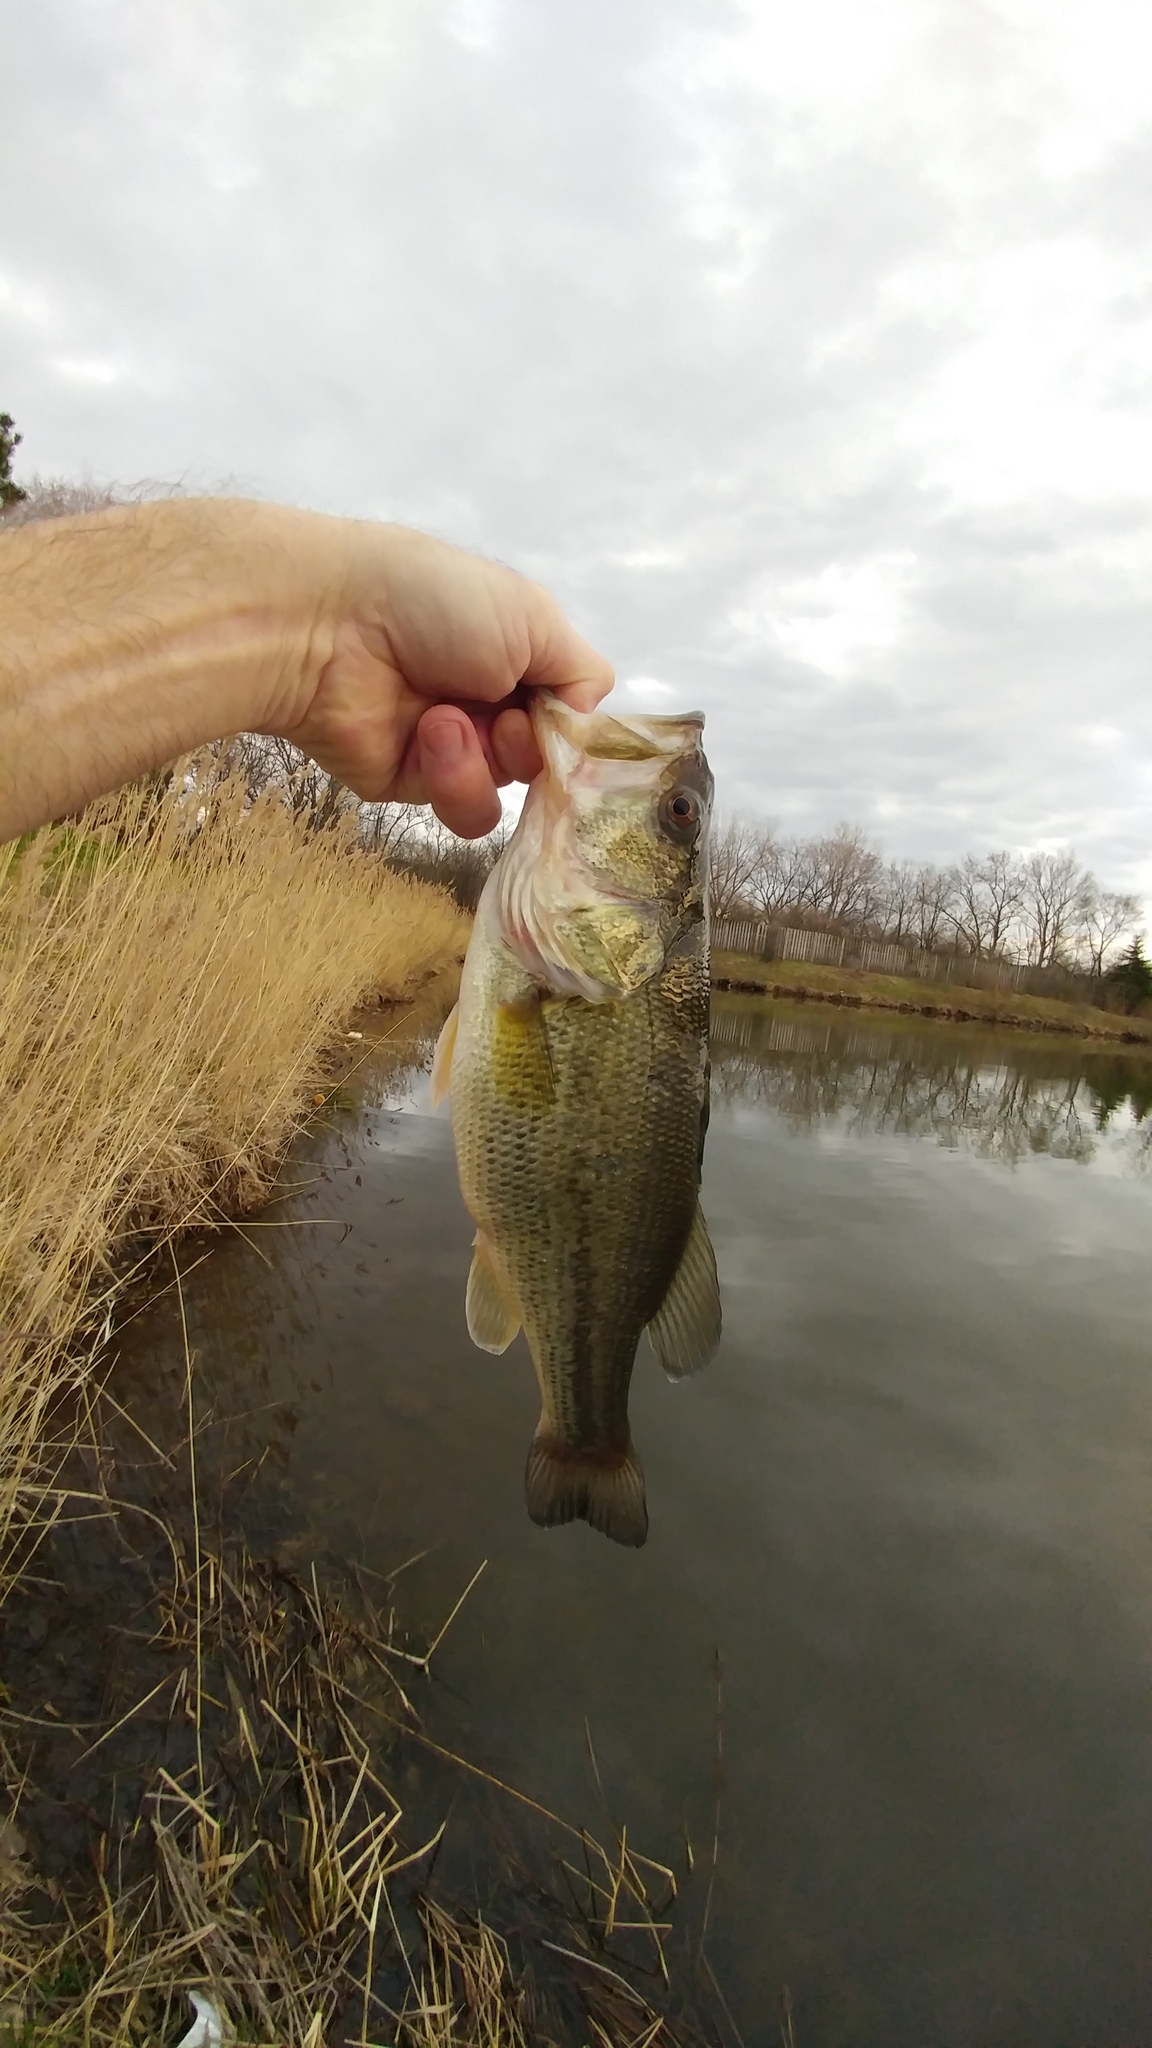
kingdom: Animalia
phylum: Chordata
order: Perciformes
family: Centrarchidae
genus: Micropterus
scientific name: Micropterus
